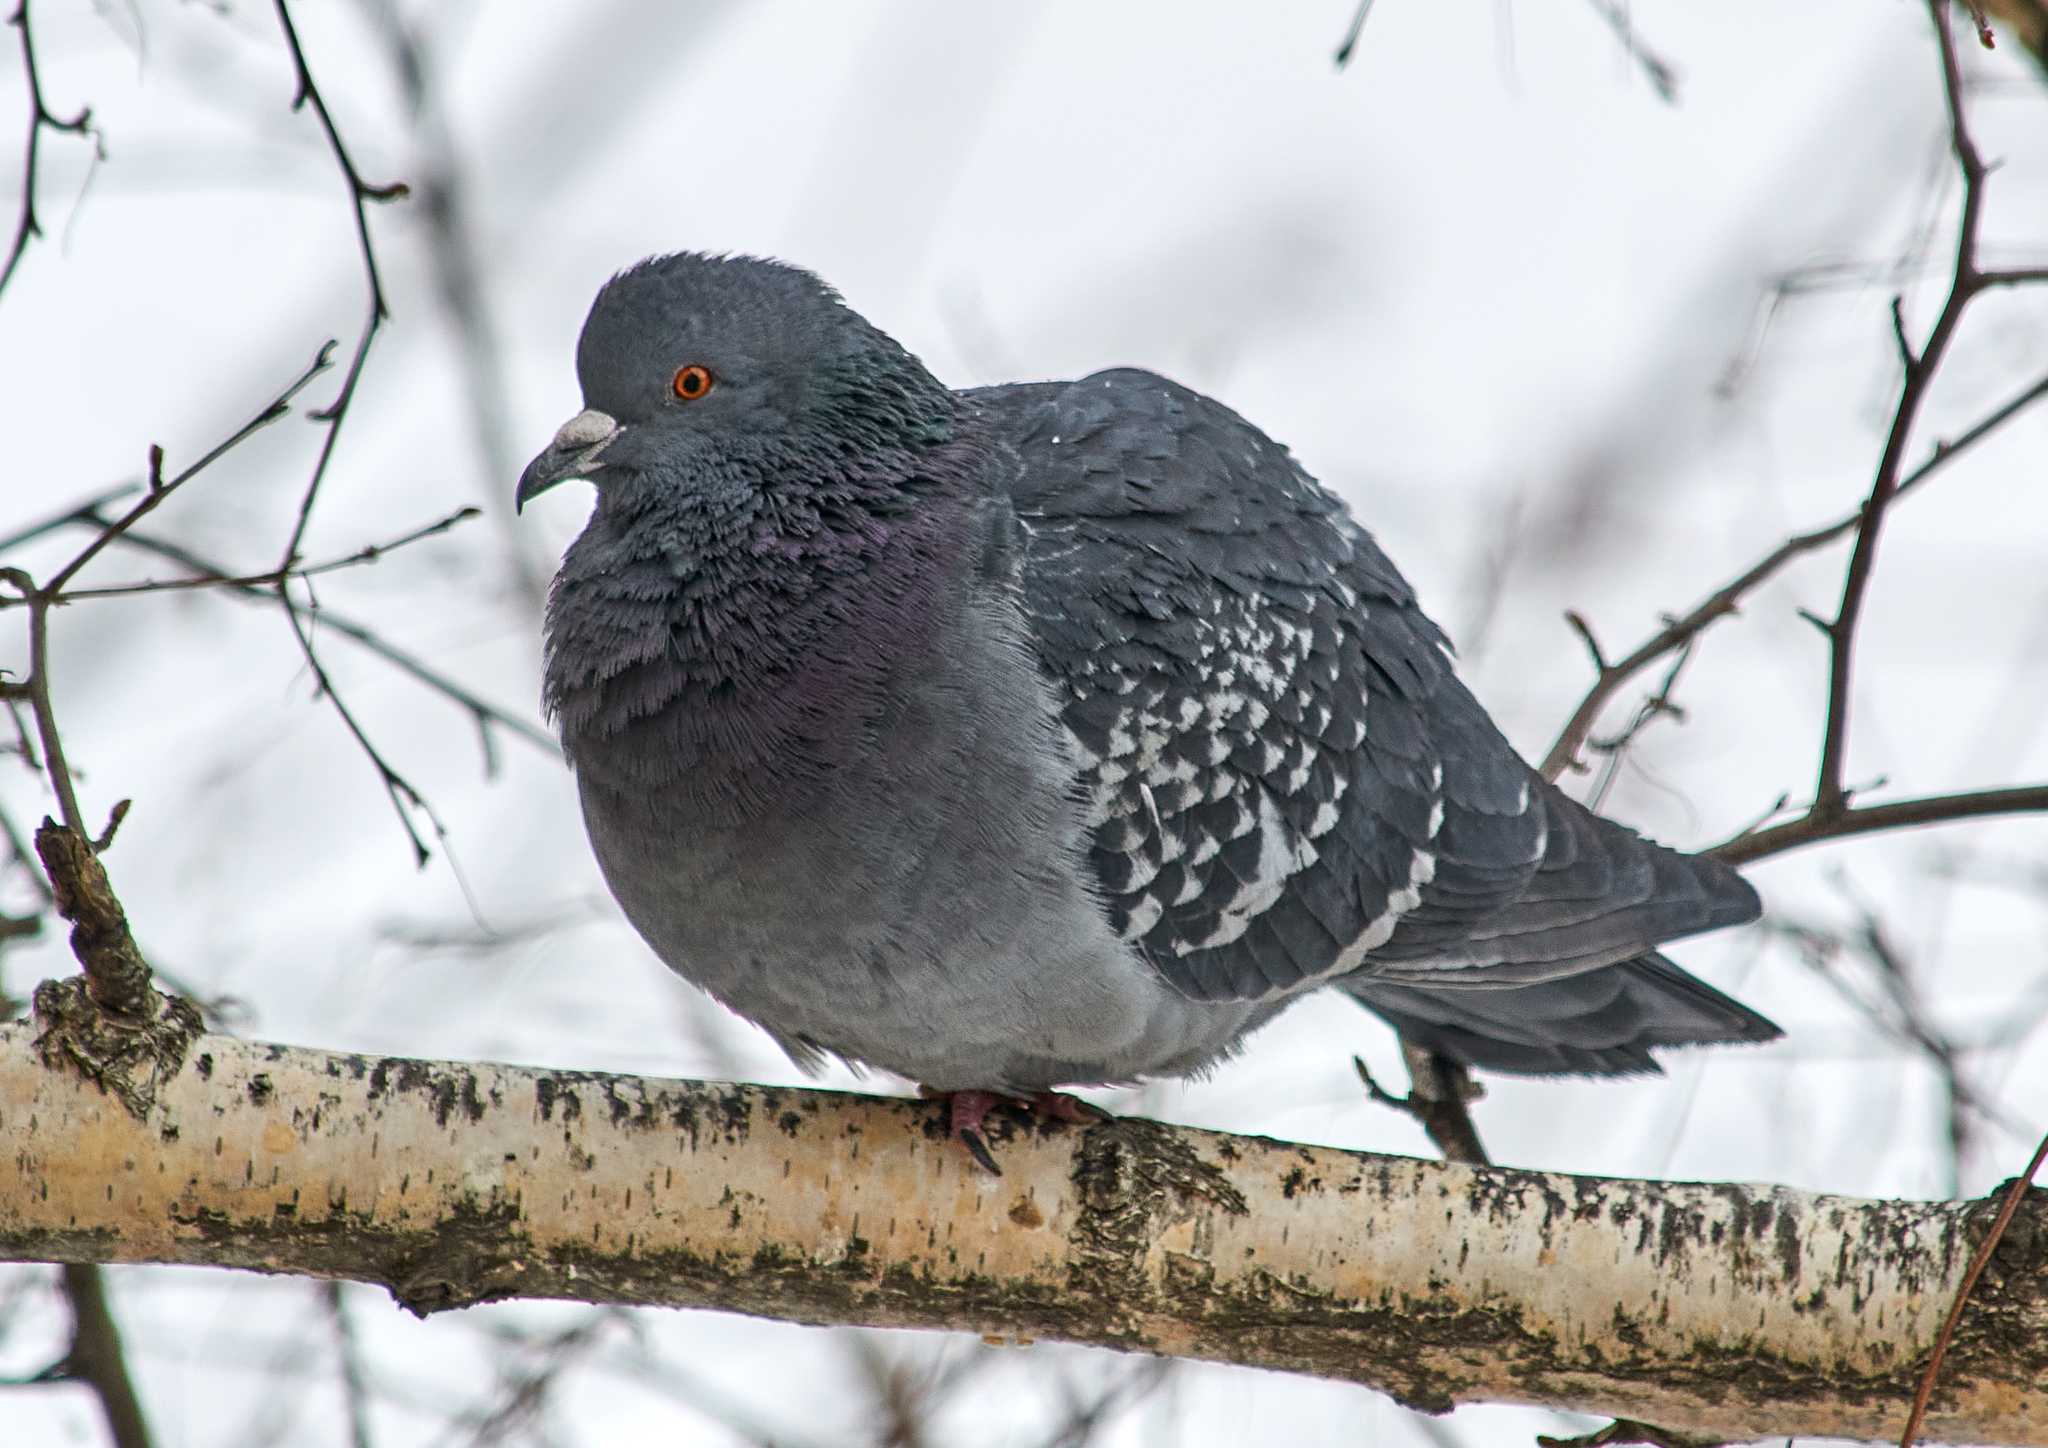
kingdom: Animalia
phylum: Chordata
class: Aves
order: Columbiformes
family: Columbidae
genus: Columba
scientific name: Columba livia
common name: Rock pigeon
